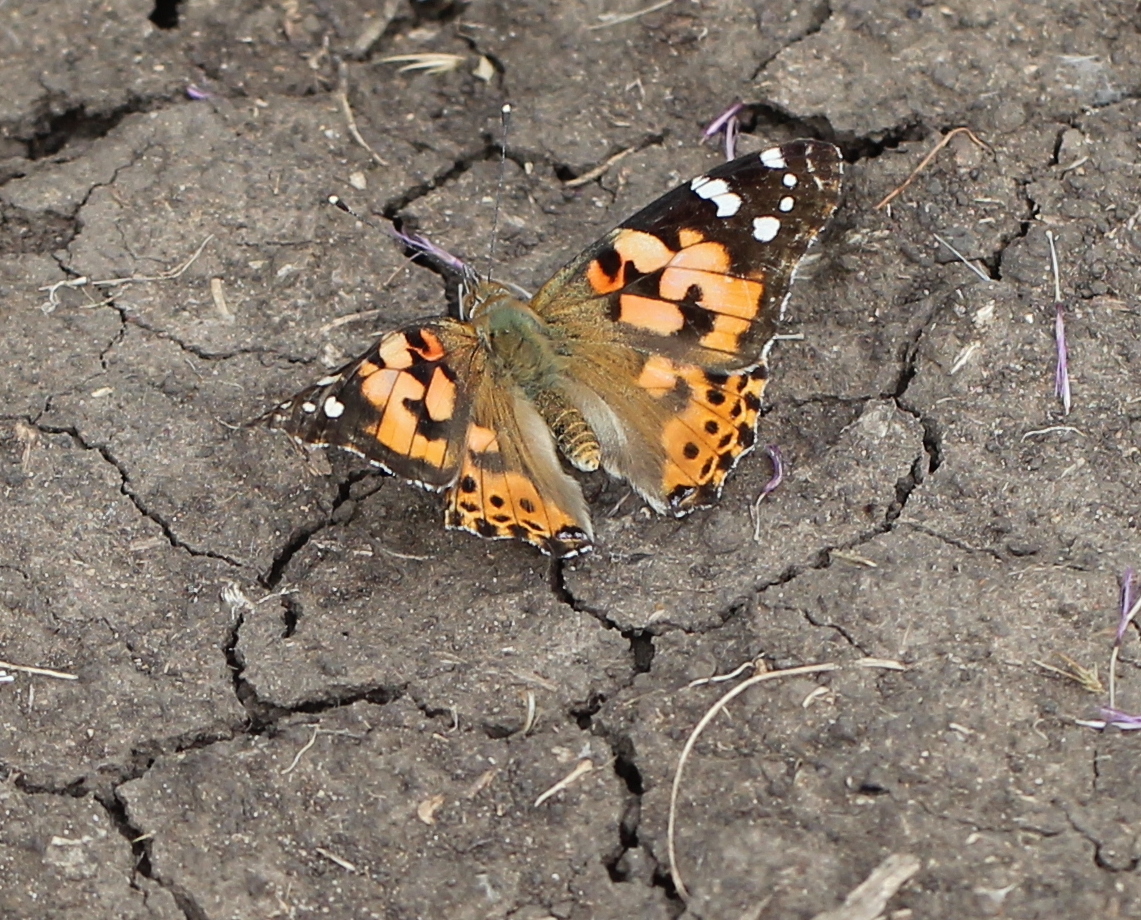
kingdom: Animalia
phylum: Arthropoda
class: Insecta
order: Lepidoptera
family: Nymphalidae
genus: Vanessa
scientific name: Vanessa cardui
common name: Painted lady
